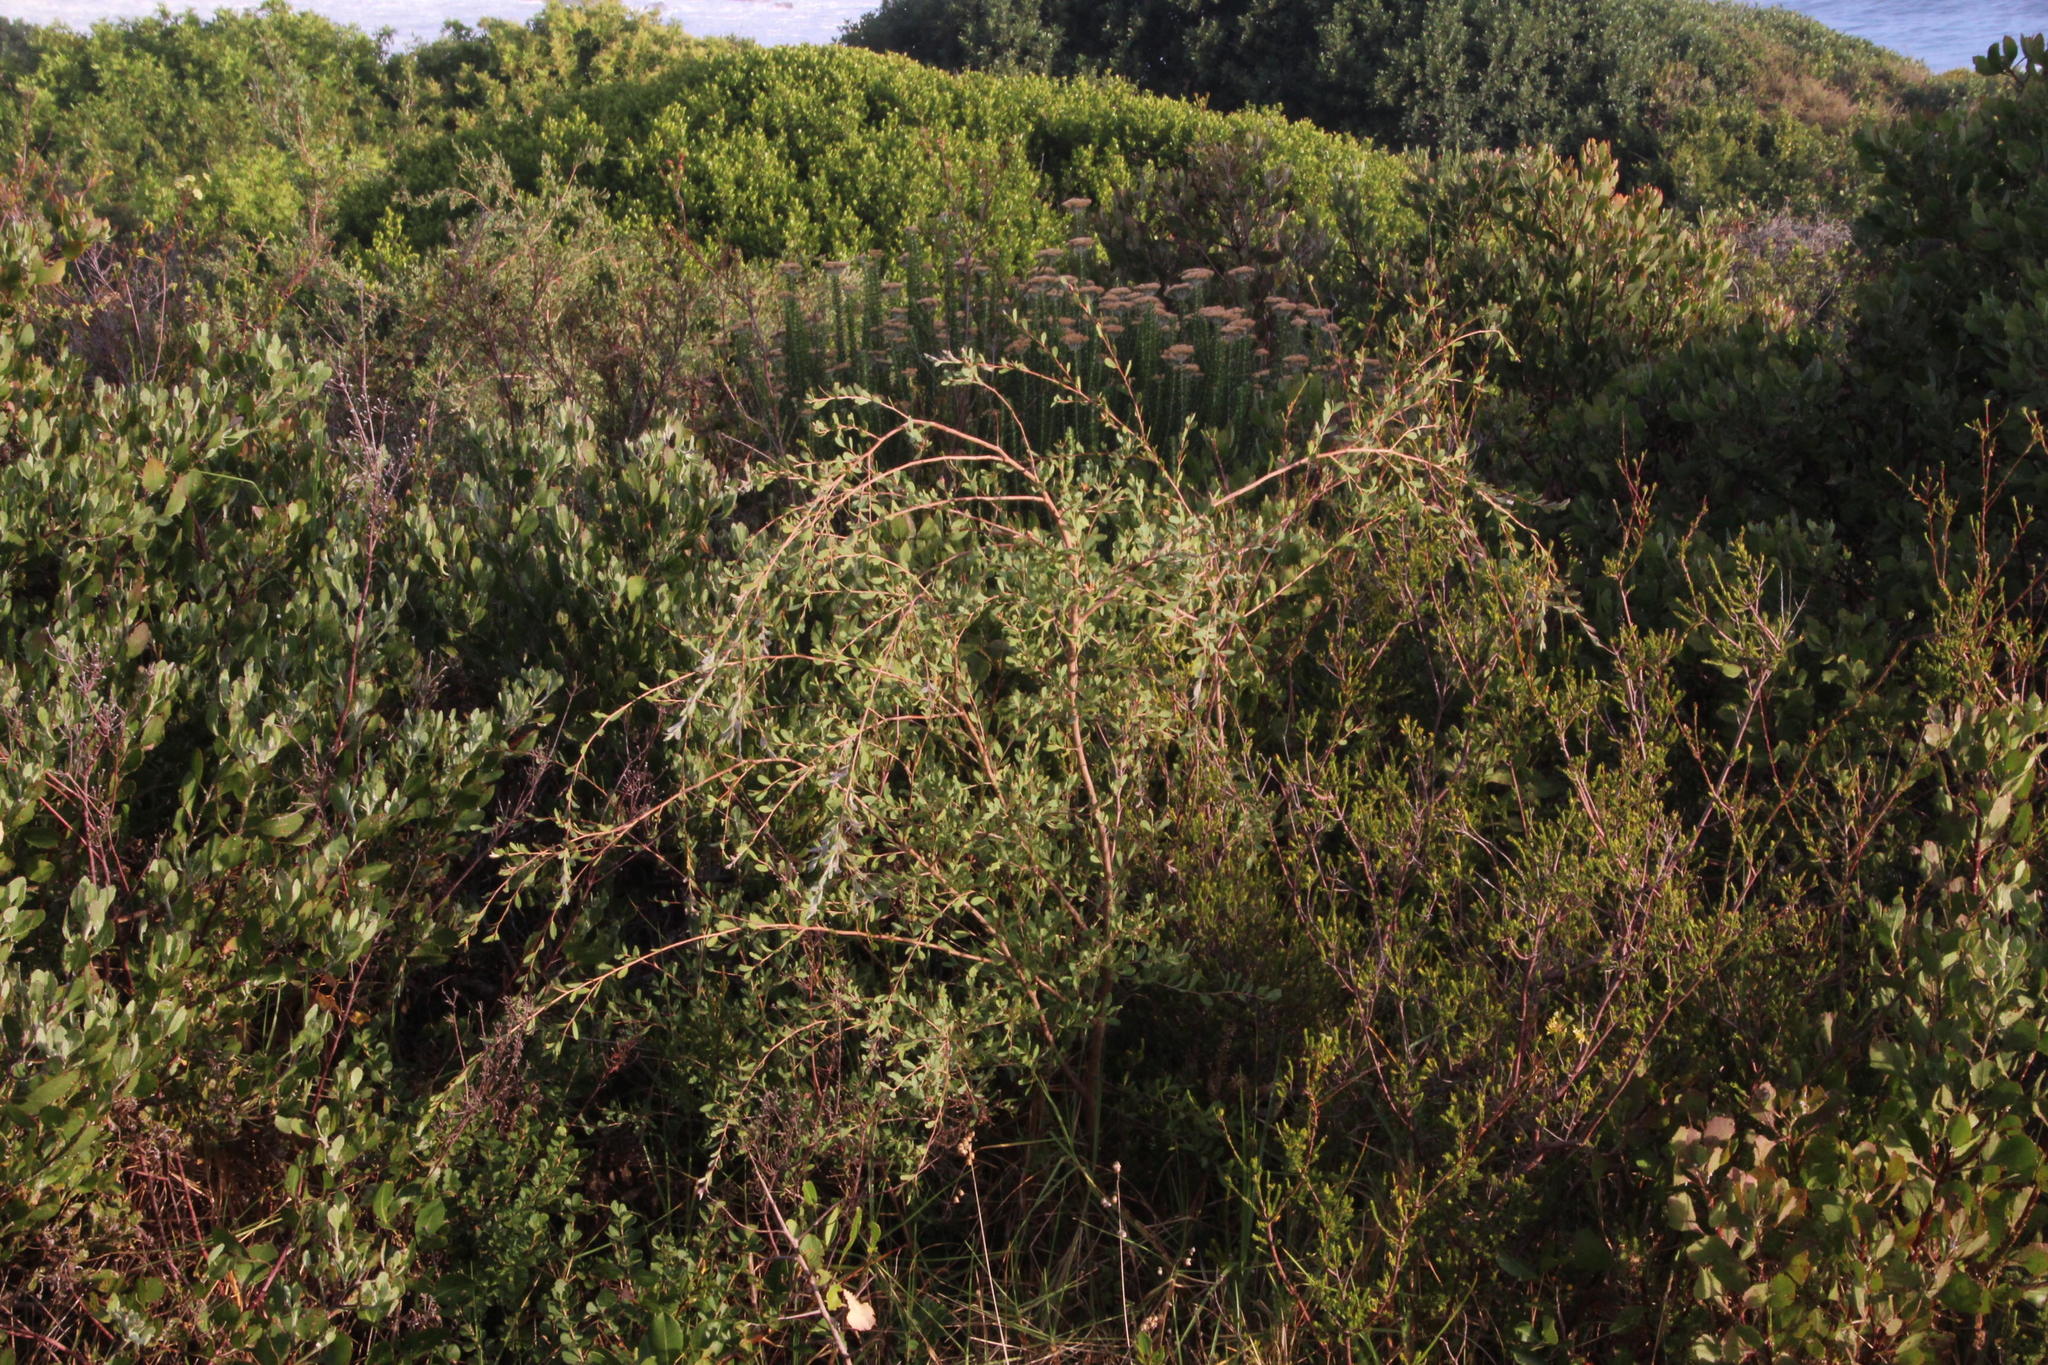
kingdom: Plantae
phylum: Tracheophyta
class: Magnoliopsida
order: Myrtales
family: Myrtaceae
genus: Leptospermum
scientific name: Leptospermum laevigatum
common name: Australian teatree
